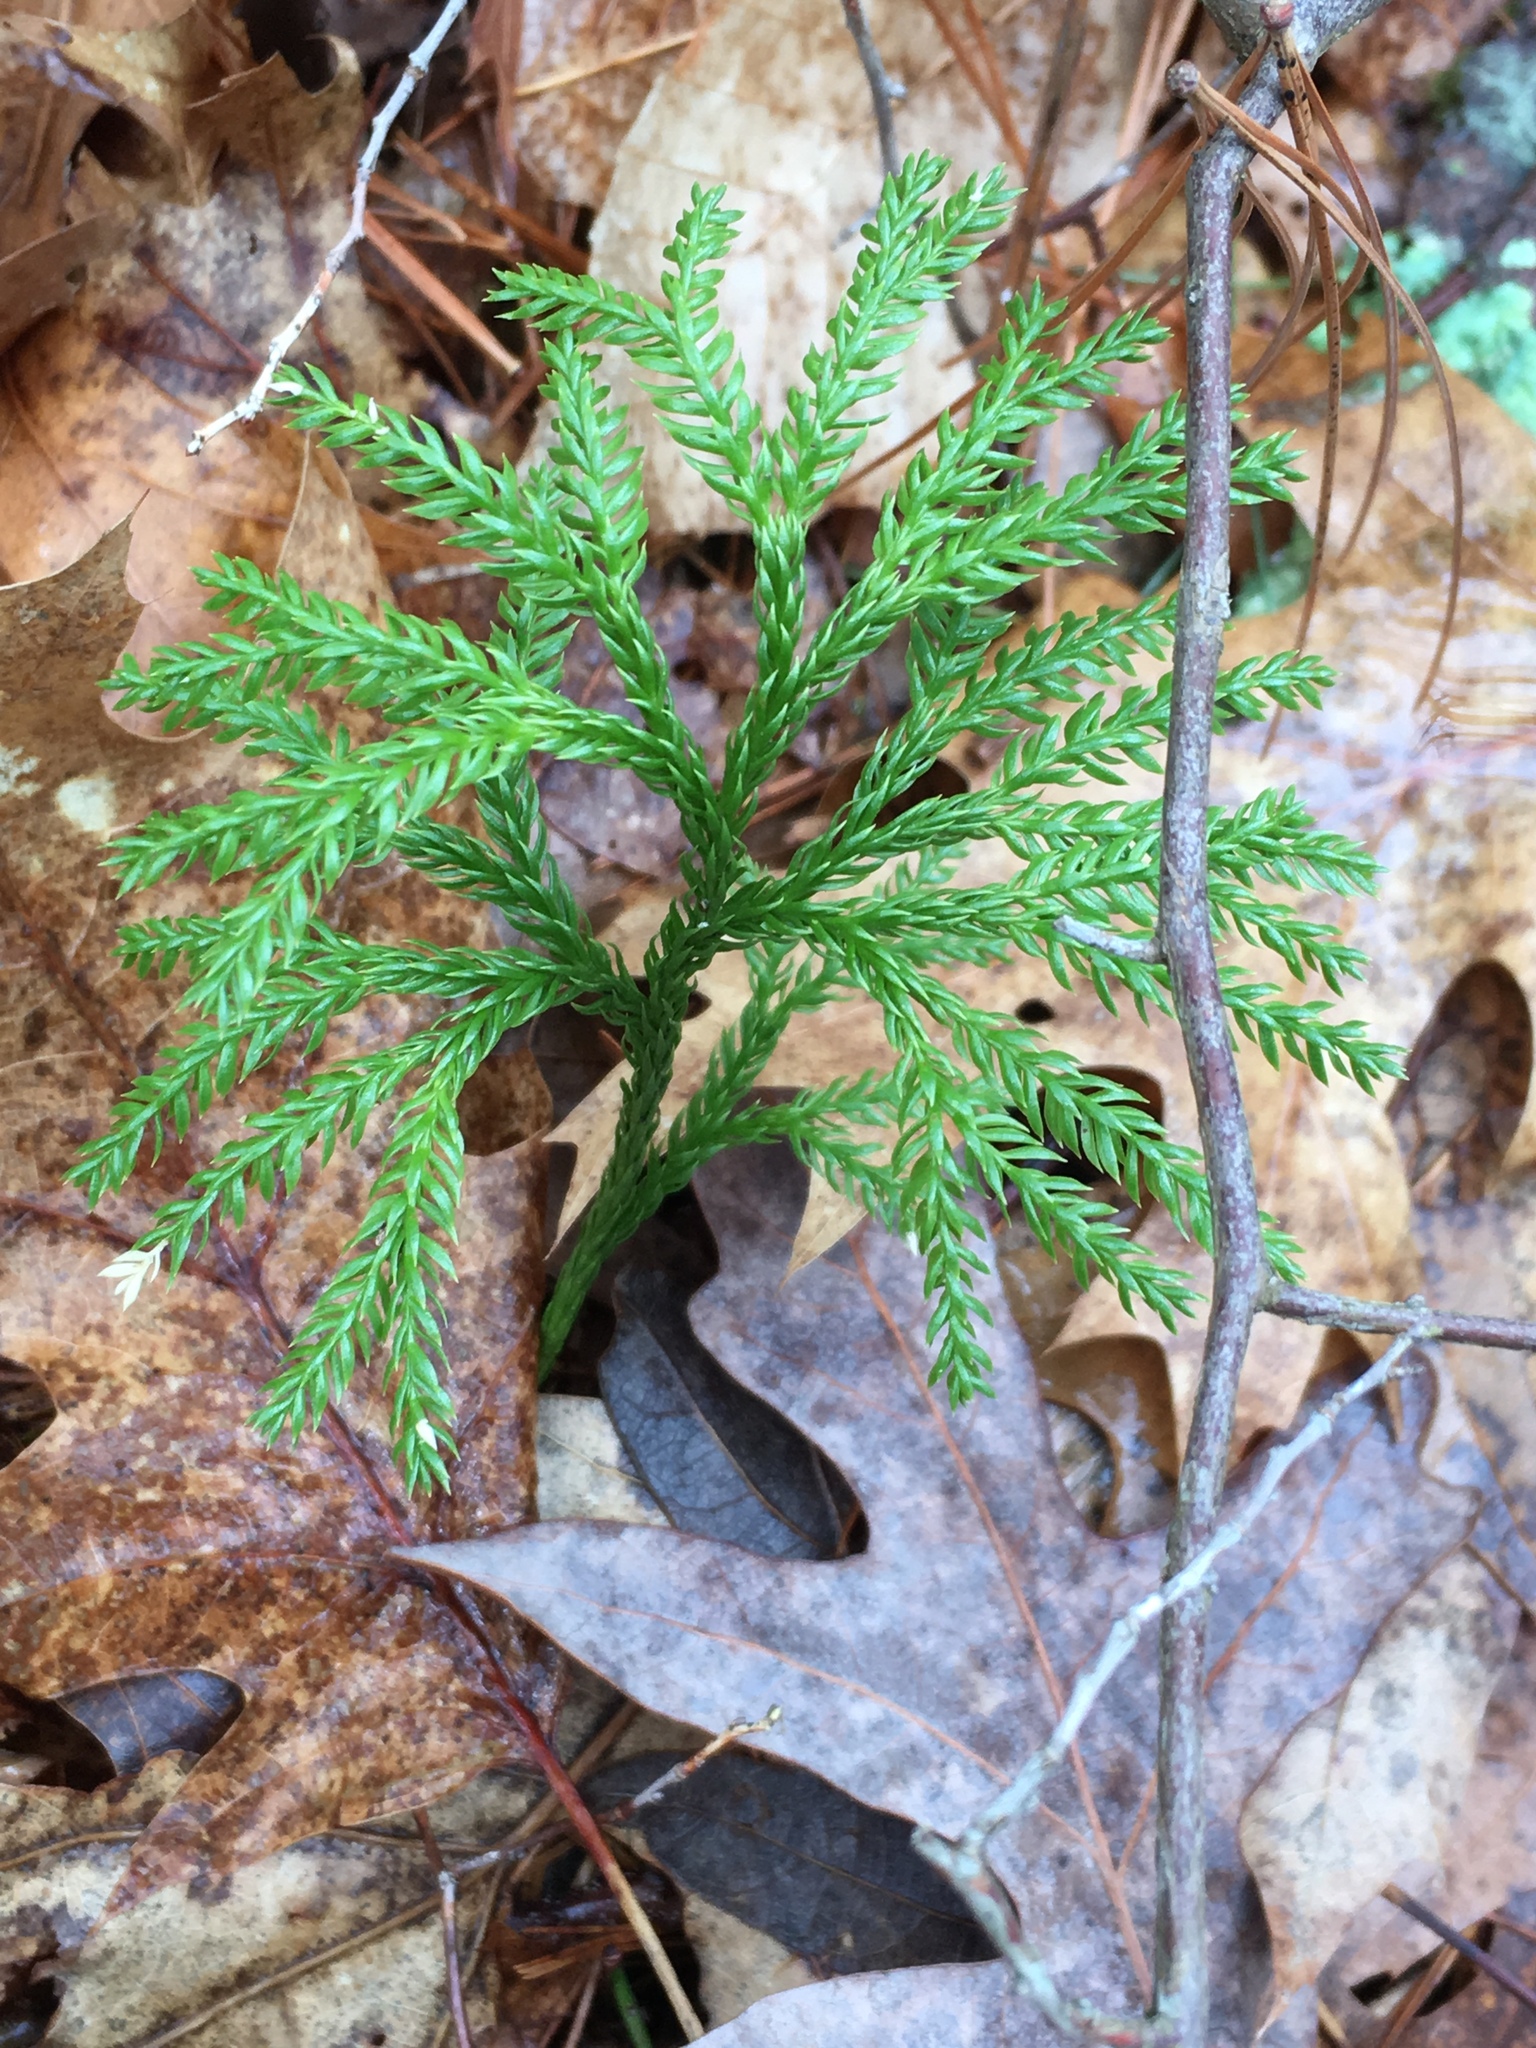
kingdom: Plantae
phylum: Tracheophyta
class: Lycopodiopsida
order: Lycopodiales
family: Lycopodiaceae
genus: Dendrolycopodium
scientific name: Dendrolycopodium obscurum
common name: Common ground-pine
